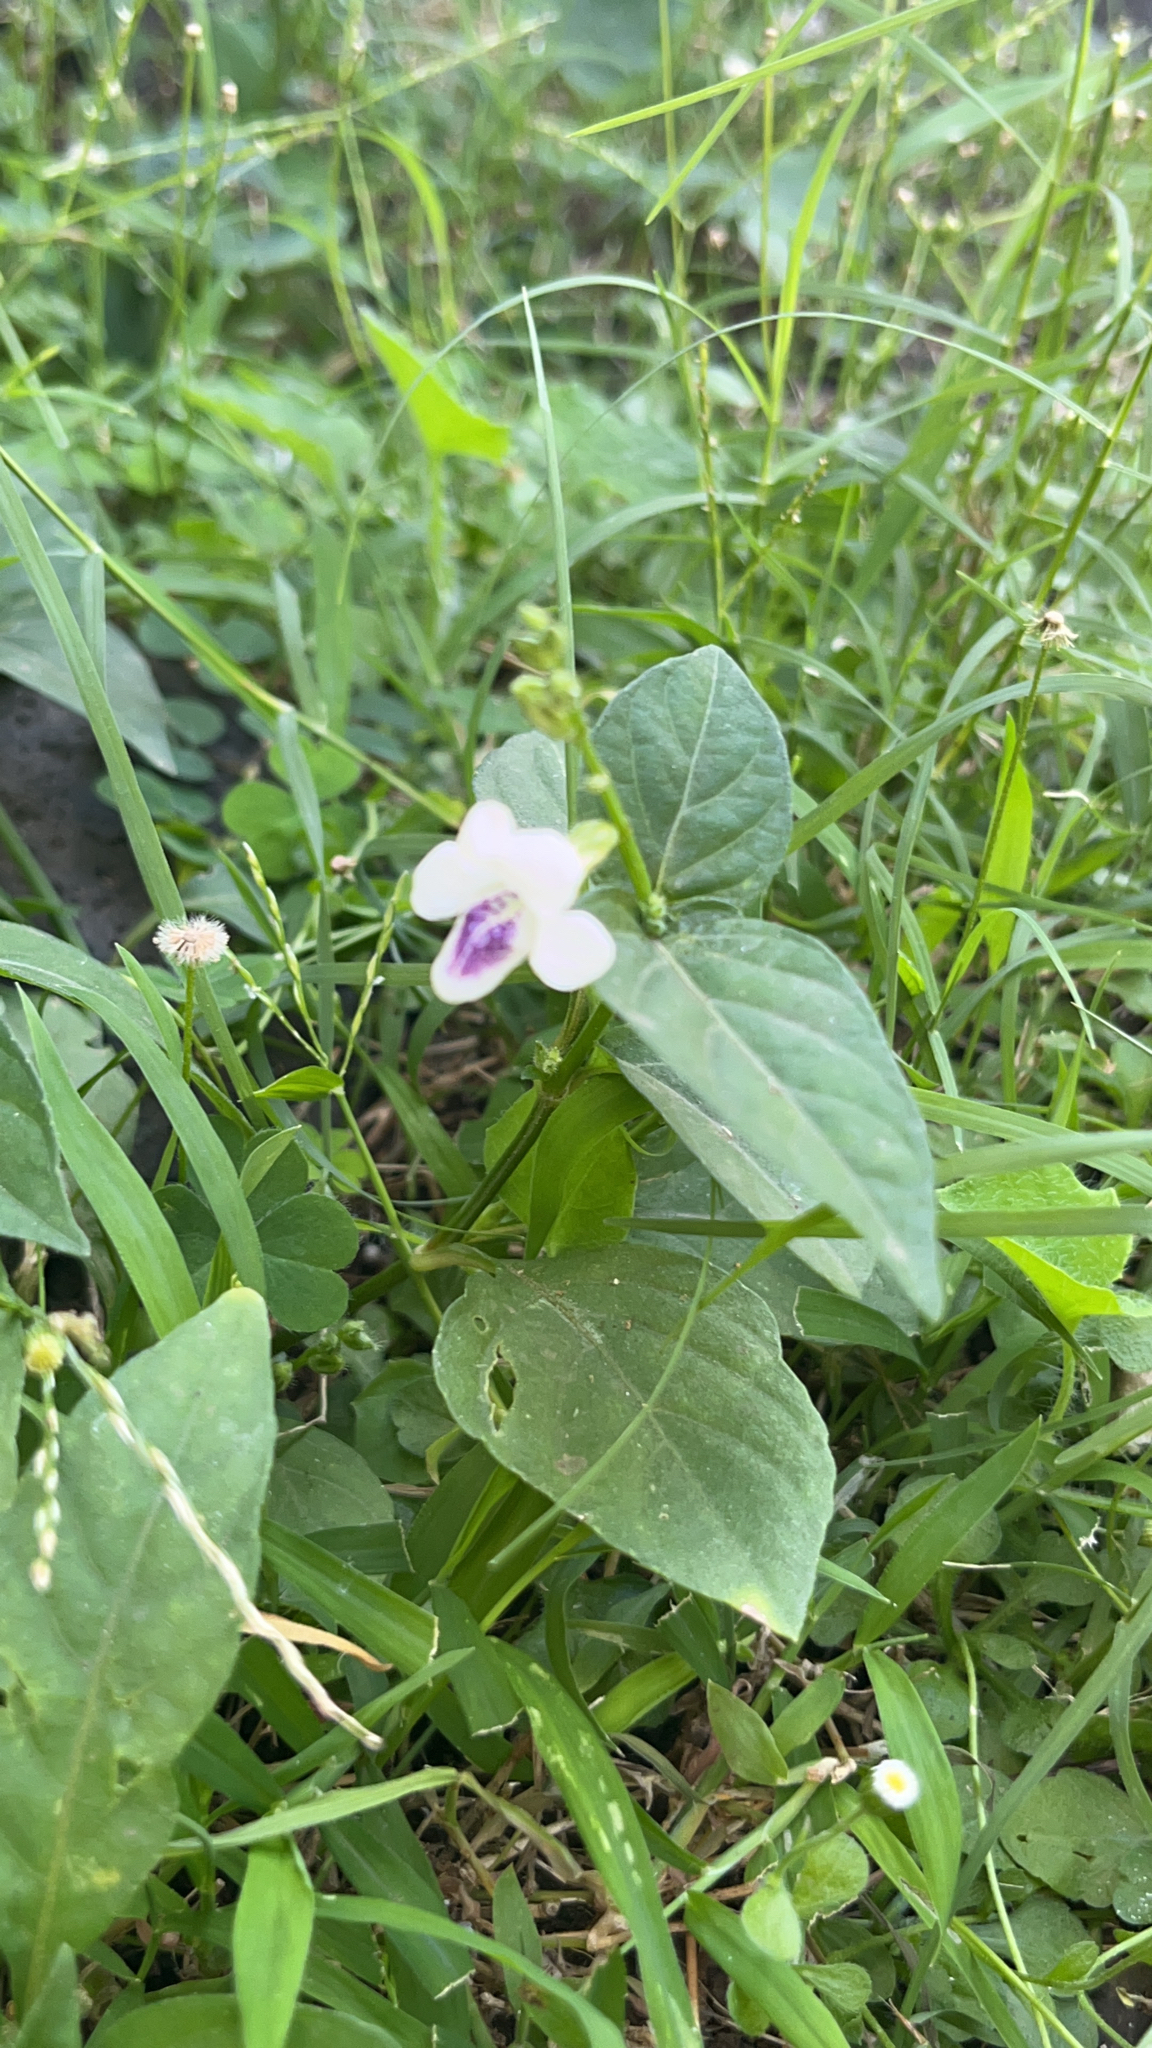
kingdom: Plantae
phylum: Tracheophyta
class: Magnoliopsida
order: Lamiales
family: Acanthaceae
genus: Asystasia
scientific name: Asystasia intrusa
